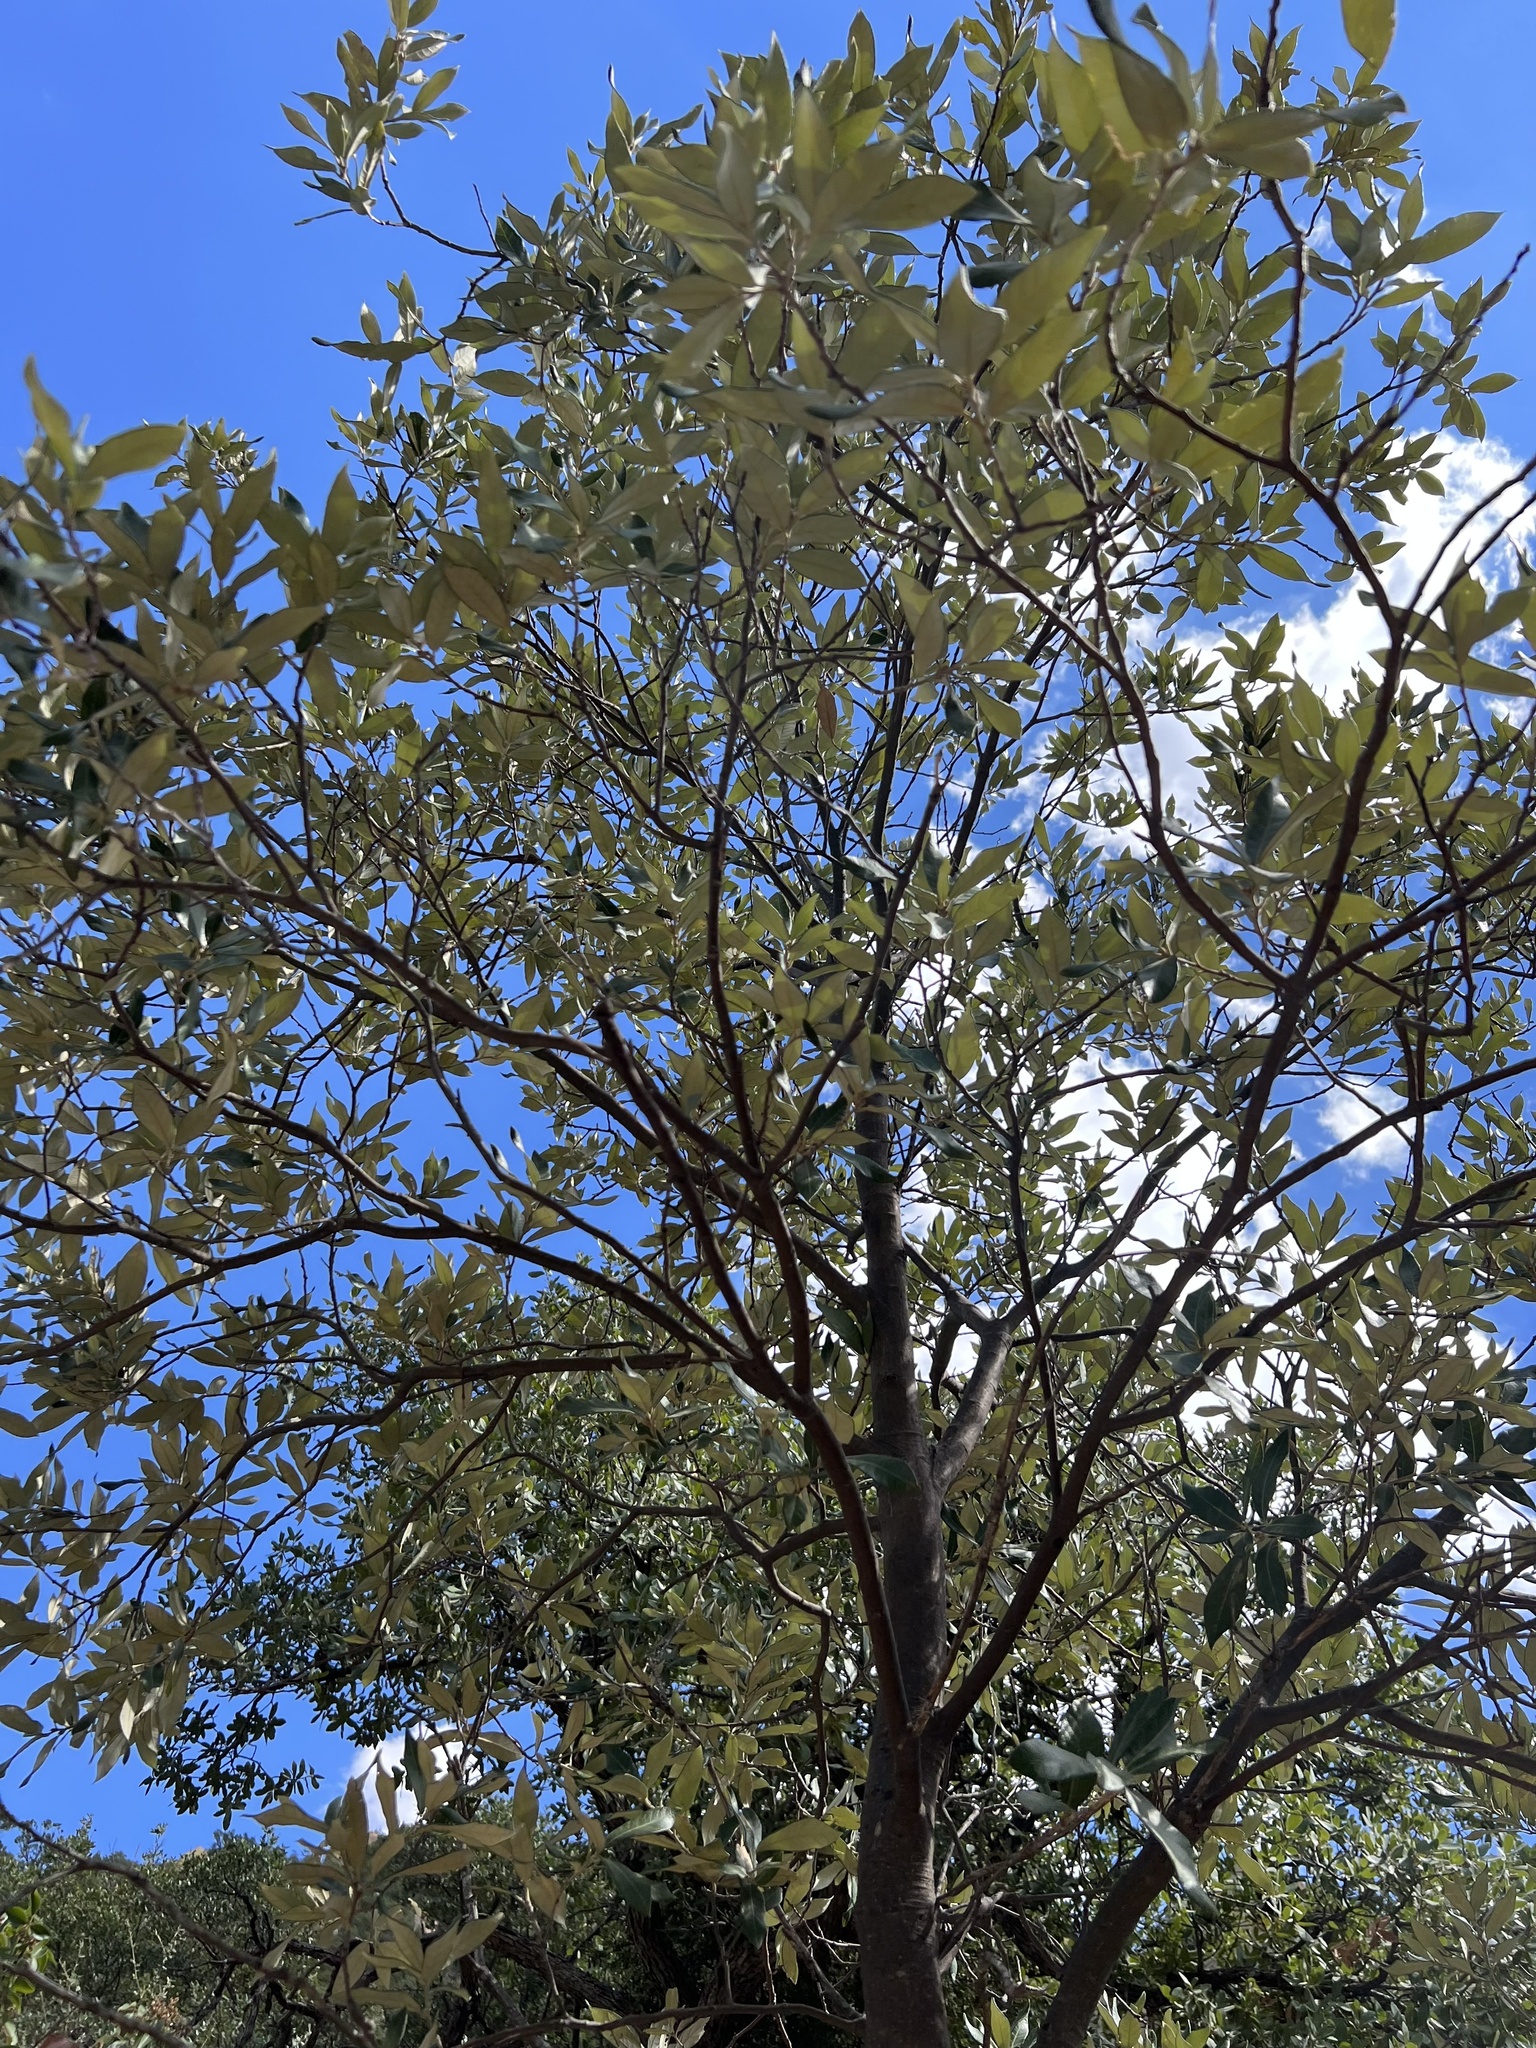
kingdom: Plantae
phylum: Tracheophyta
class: Magnoliopsida
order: Fagales
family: Fagaceae
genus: Quercus
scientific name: Quercus hypoleucoides
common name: Silverleaf oak
